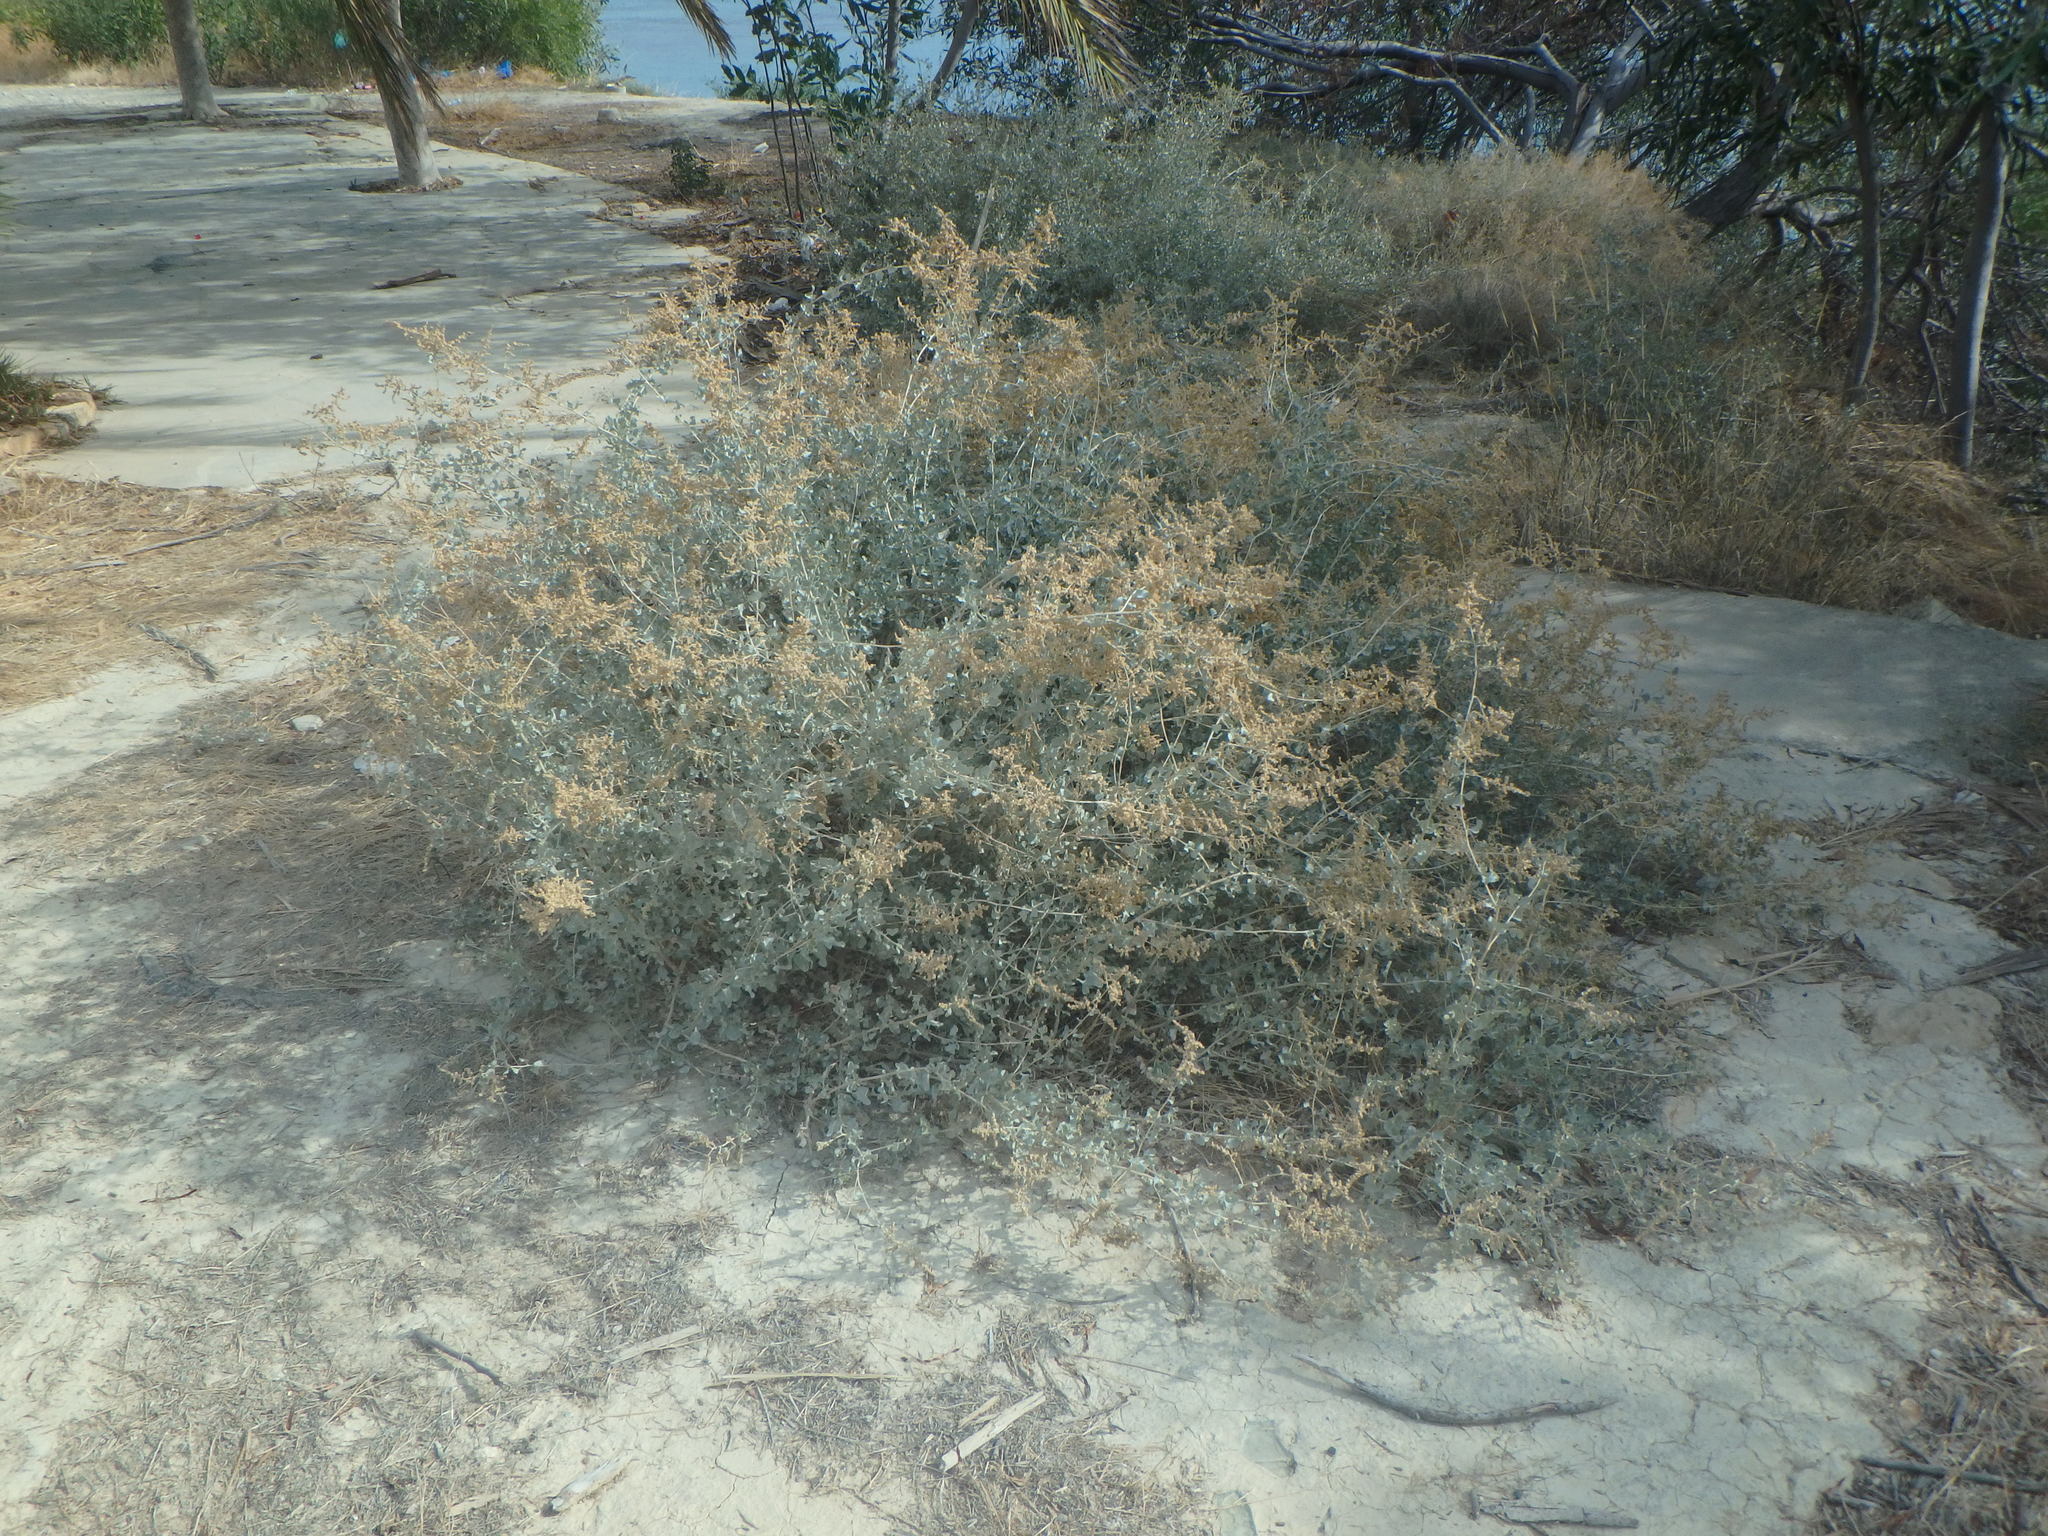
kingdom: Plantae
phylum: Tracheophyta
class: Magnoliopsida
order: Caryophyllales
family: Amaranthaceae
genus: Atriplex
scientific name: Atriplex halimus
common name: Shrubby orache
